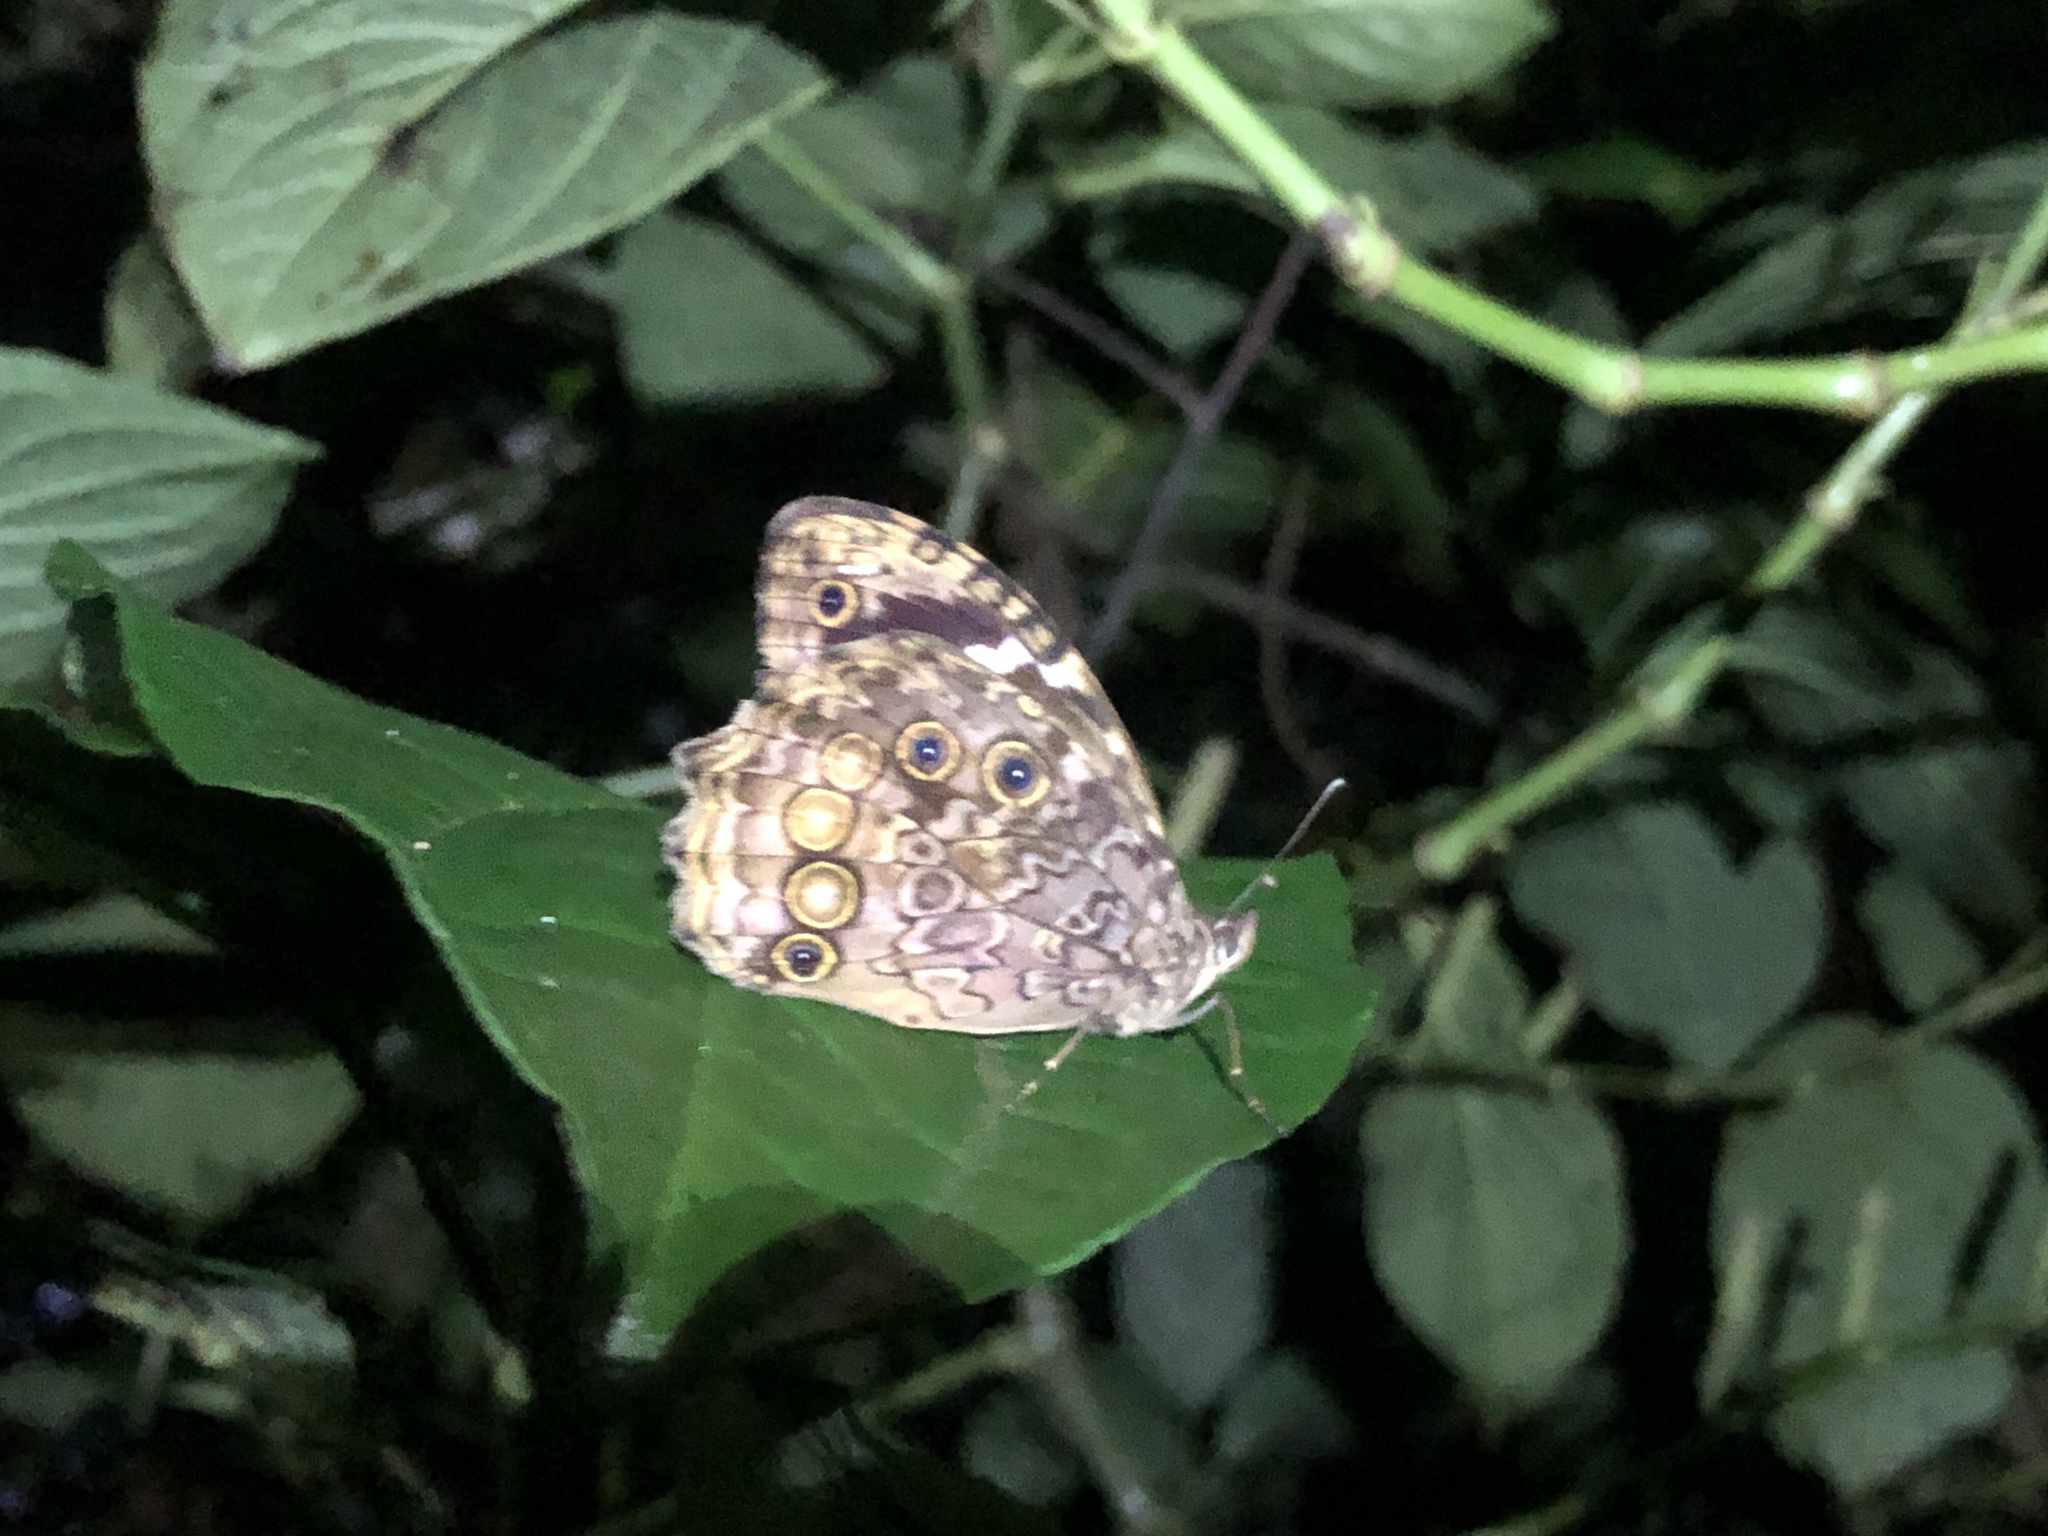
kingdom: Animalia
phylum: Arthropoda
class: Insecta
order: Lepidoptera
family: Nymphalidae
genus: Manataria
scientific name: Manataria maculata
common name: White-spotted satyr
